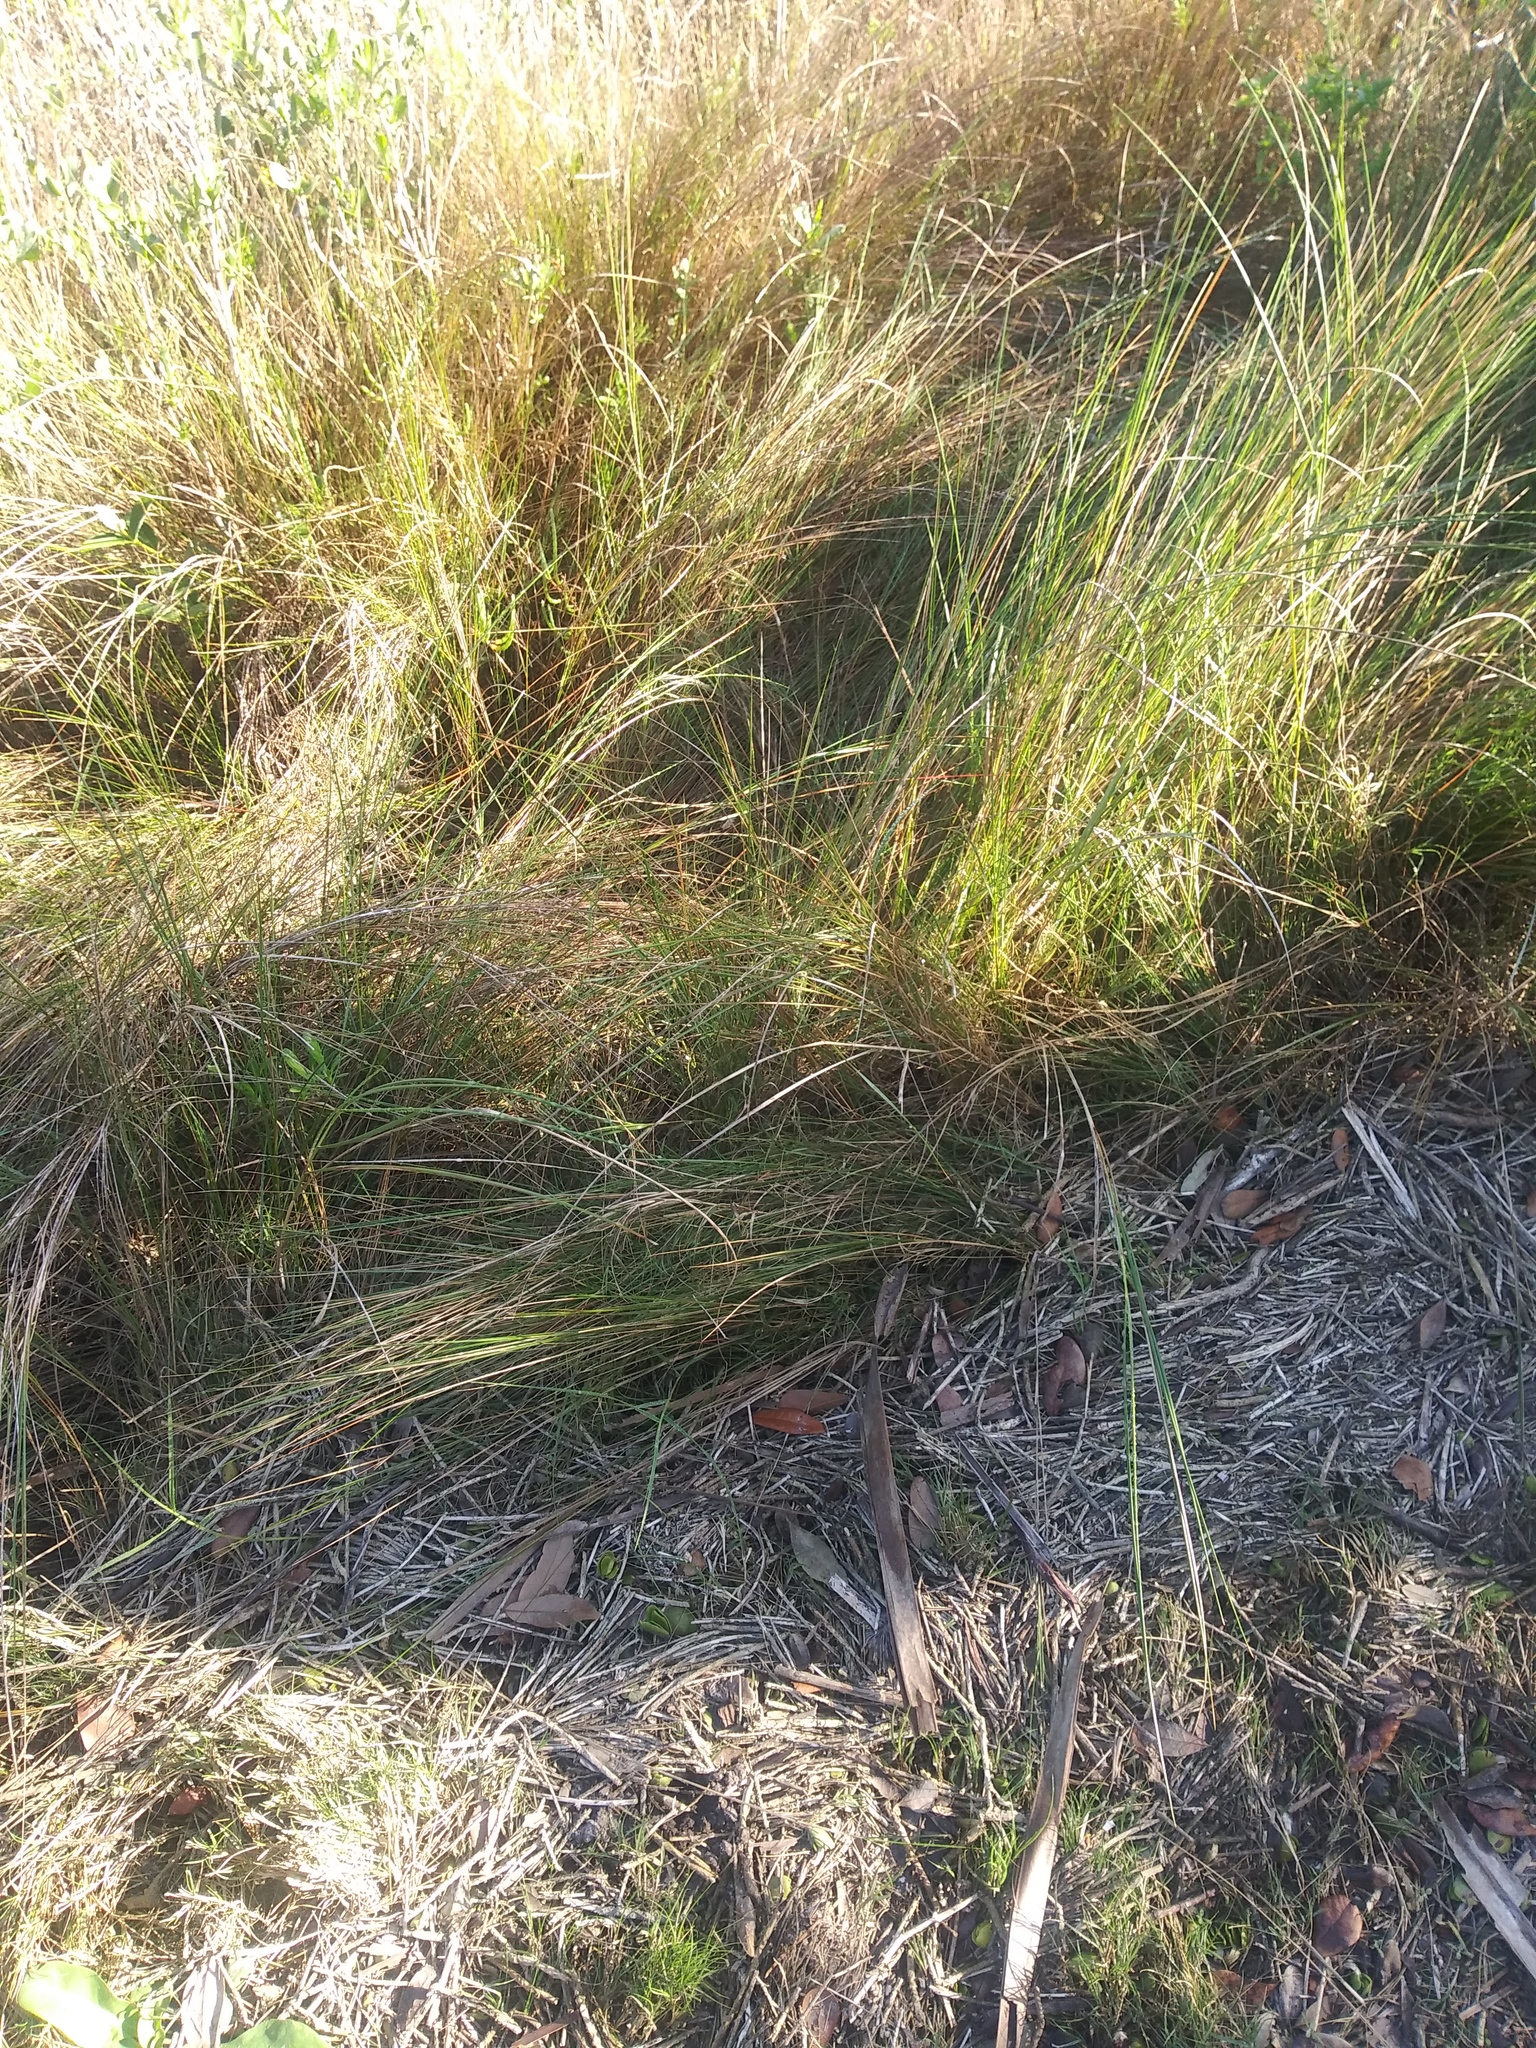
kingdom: Plantae
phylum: Tracheophyta
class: Liliopsida
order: Poales
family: Poaceae
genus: Sporobolus
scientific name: Sporobolus pumilus
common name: Highwater grass
